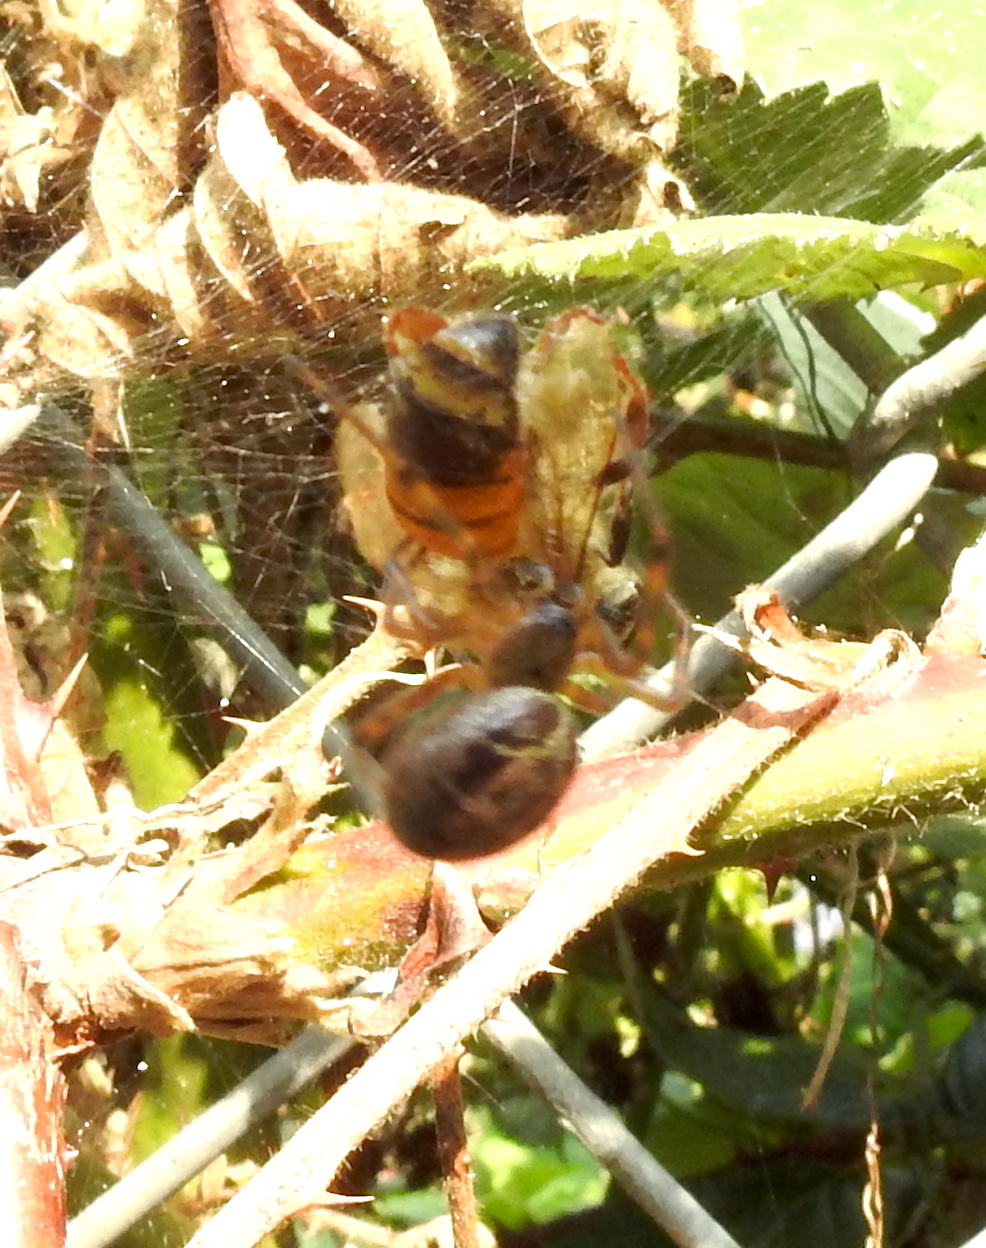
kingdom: Animalia
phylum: Arthropoda
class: Arachnida
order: Araneae
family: Theridiidae
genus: Steatoda
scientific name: Steatoda nobilis
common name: Cobweb weaver
